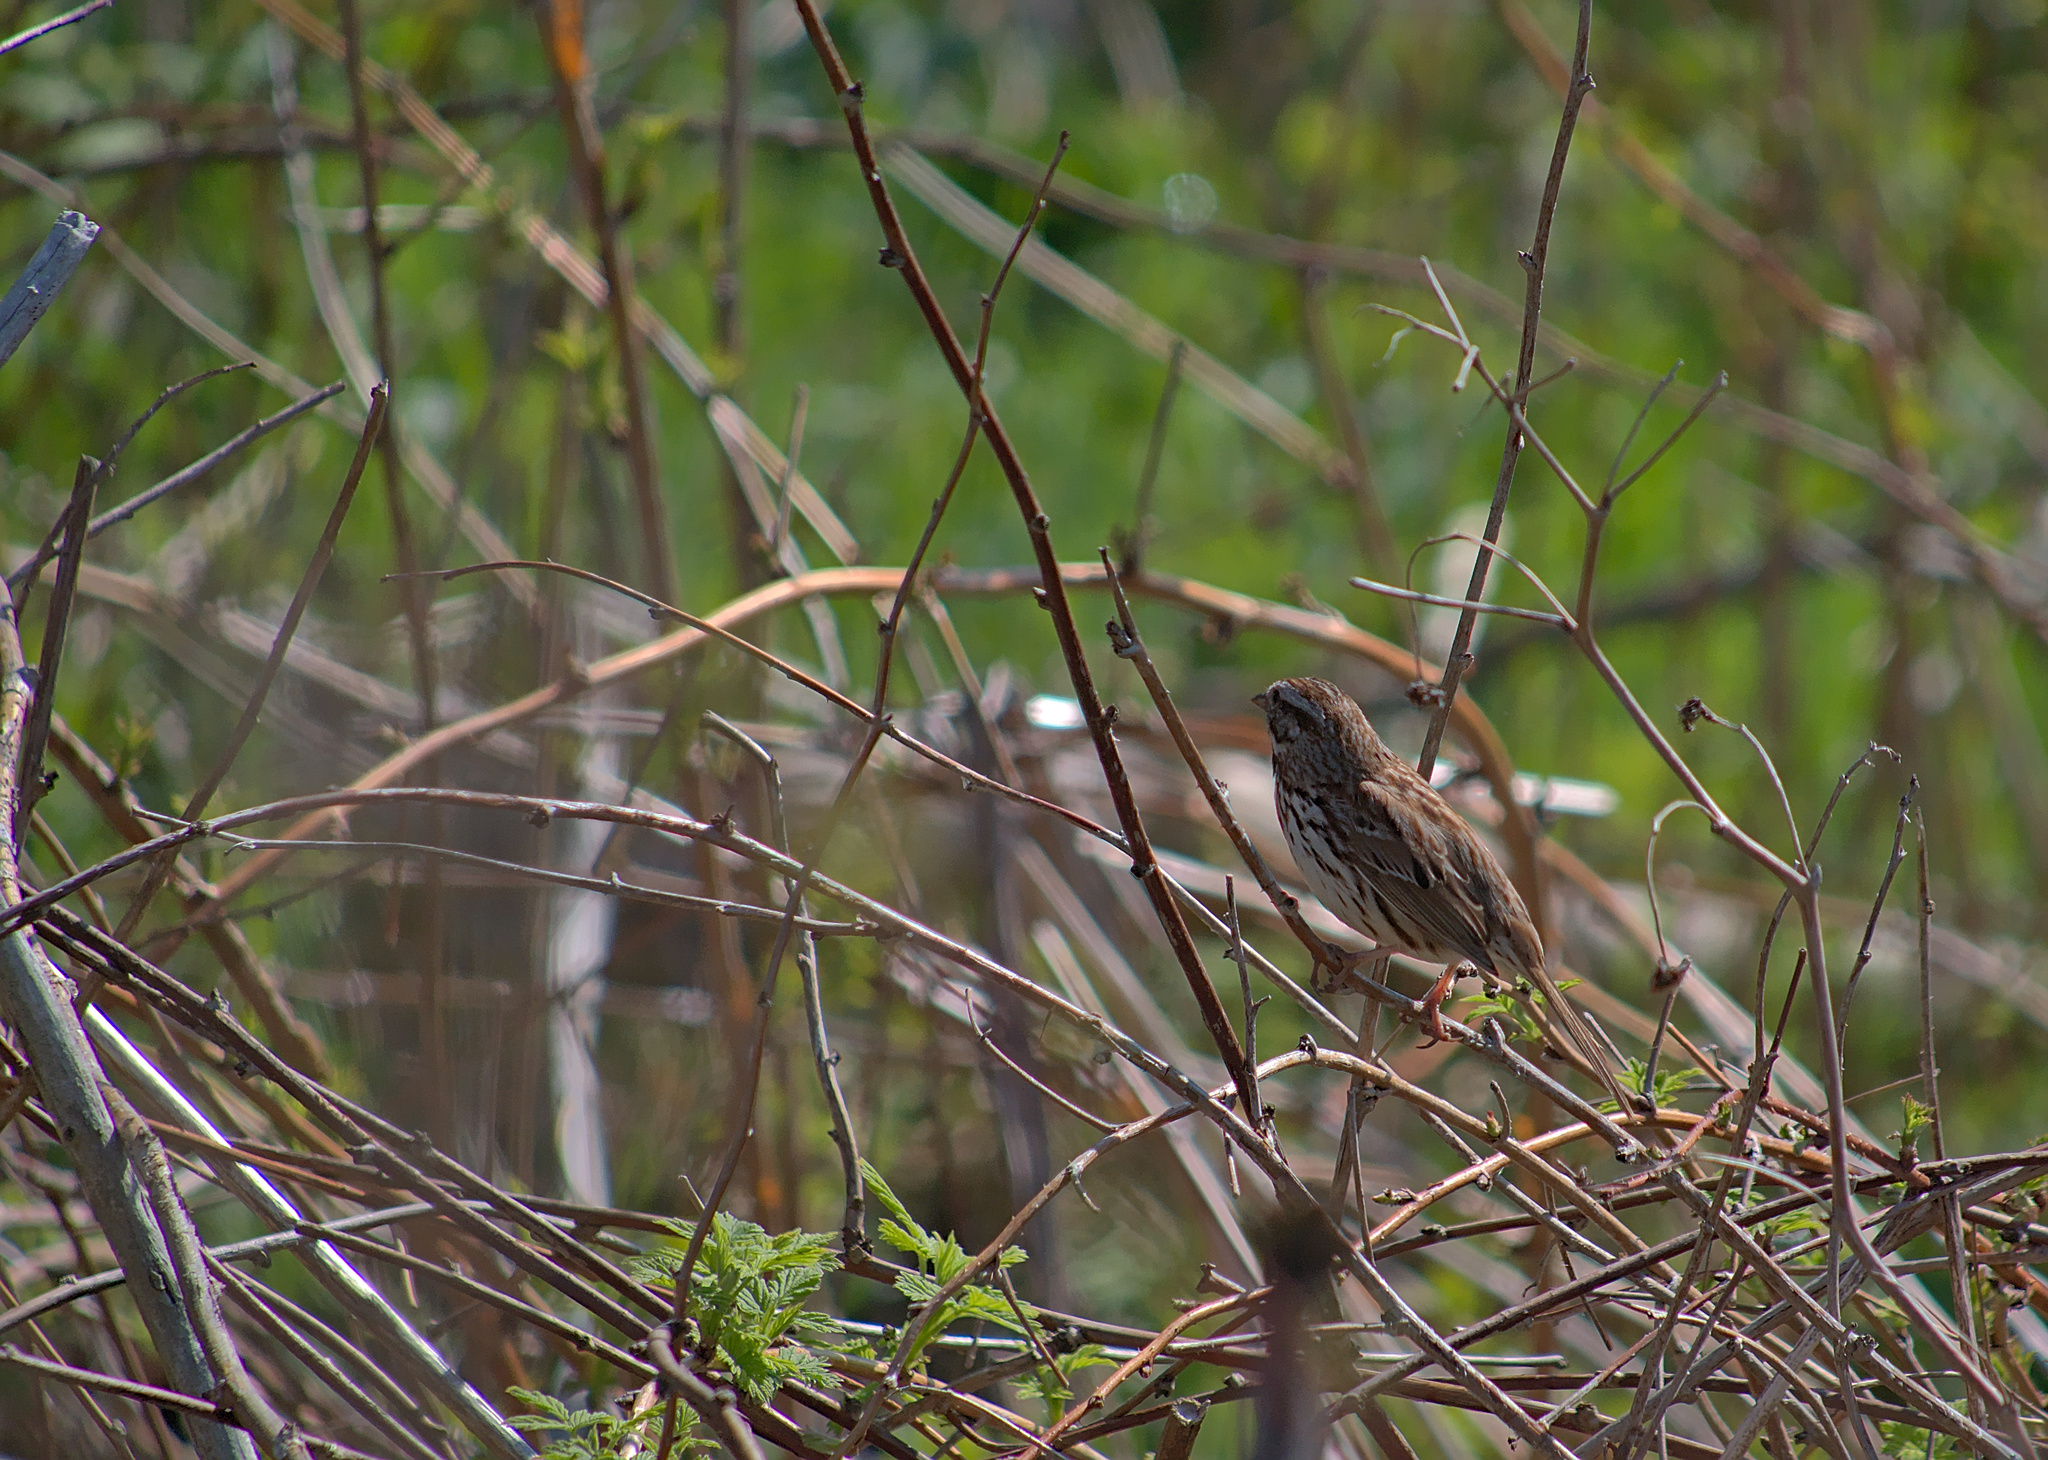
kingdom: Animalia
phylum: Chordata
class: Aves
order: Passeriformes
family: Passerellidae
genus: Melospiza
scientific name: Melospiza melodia
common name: Song sparrow
